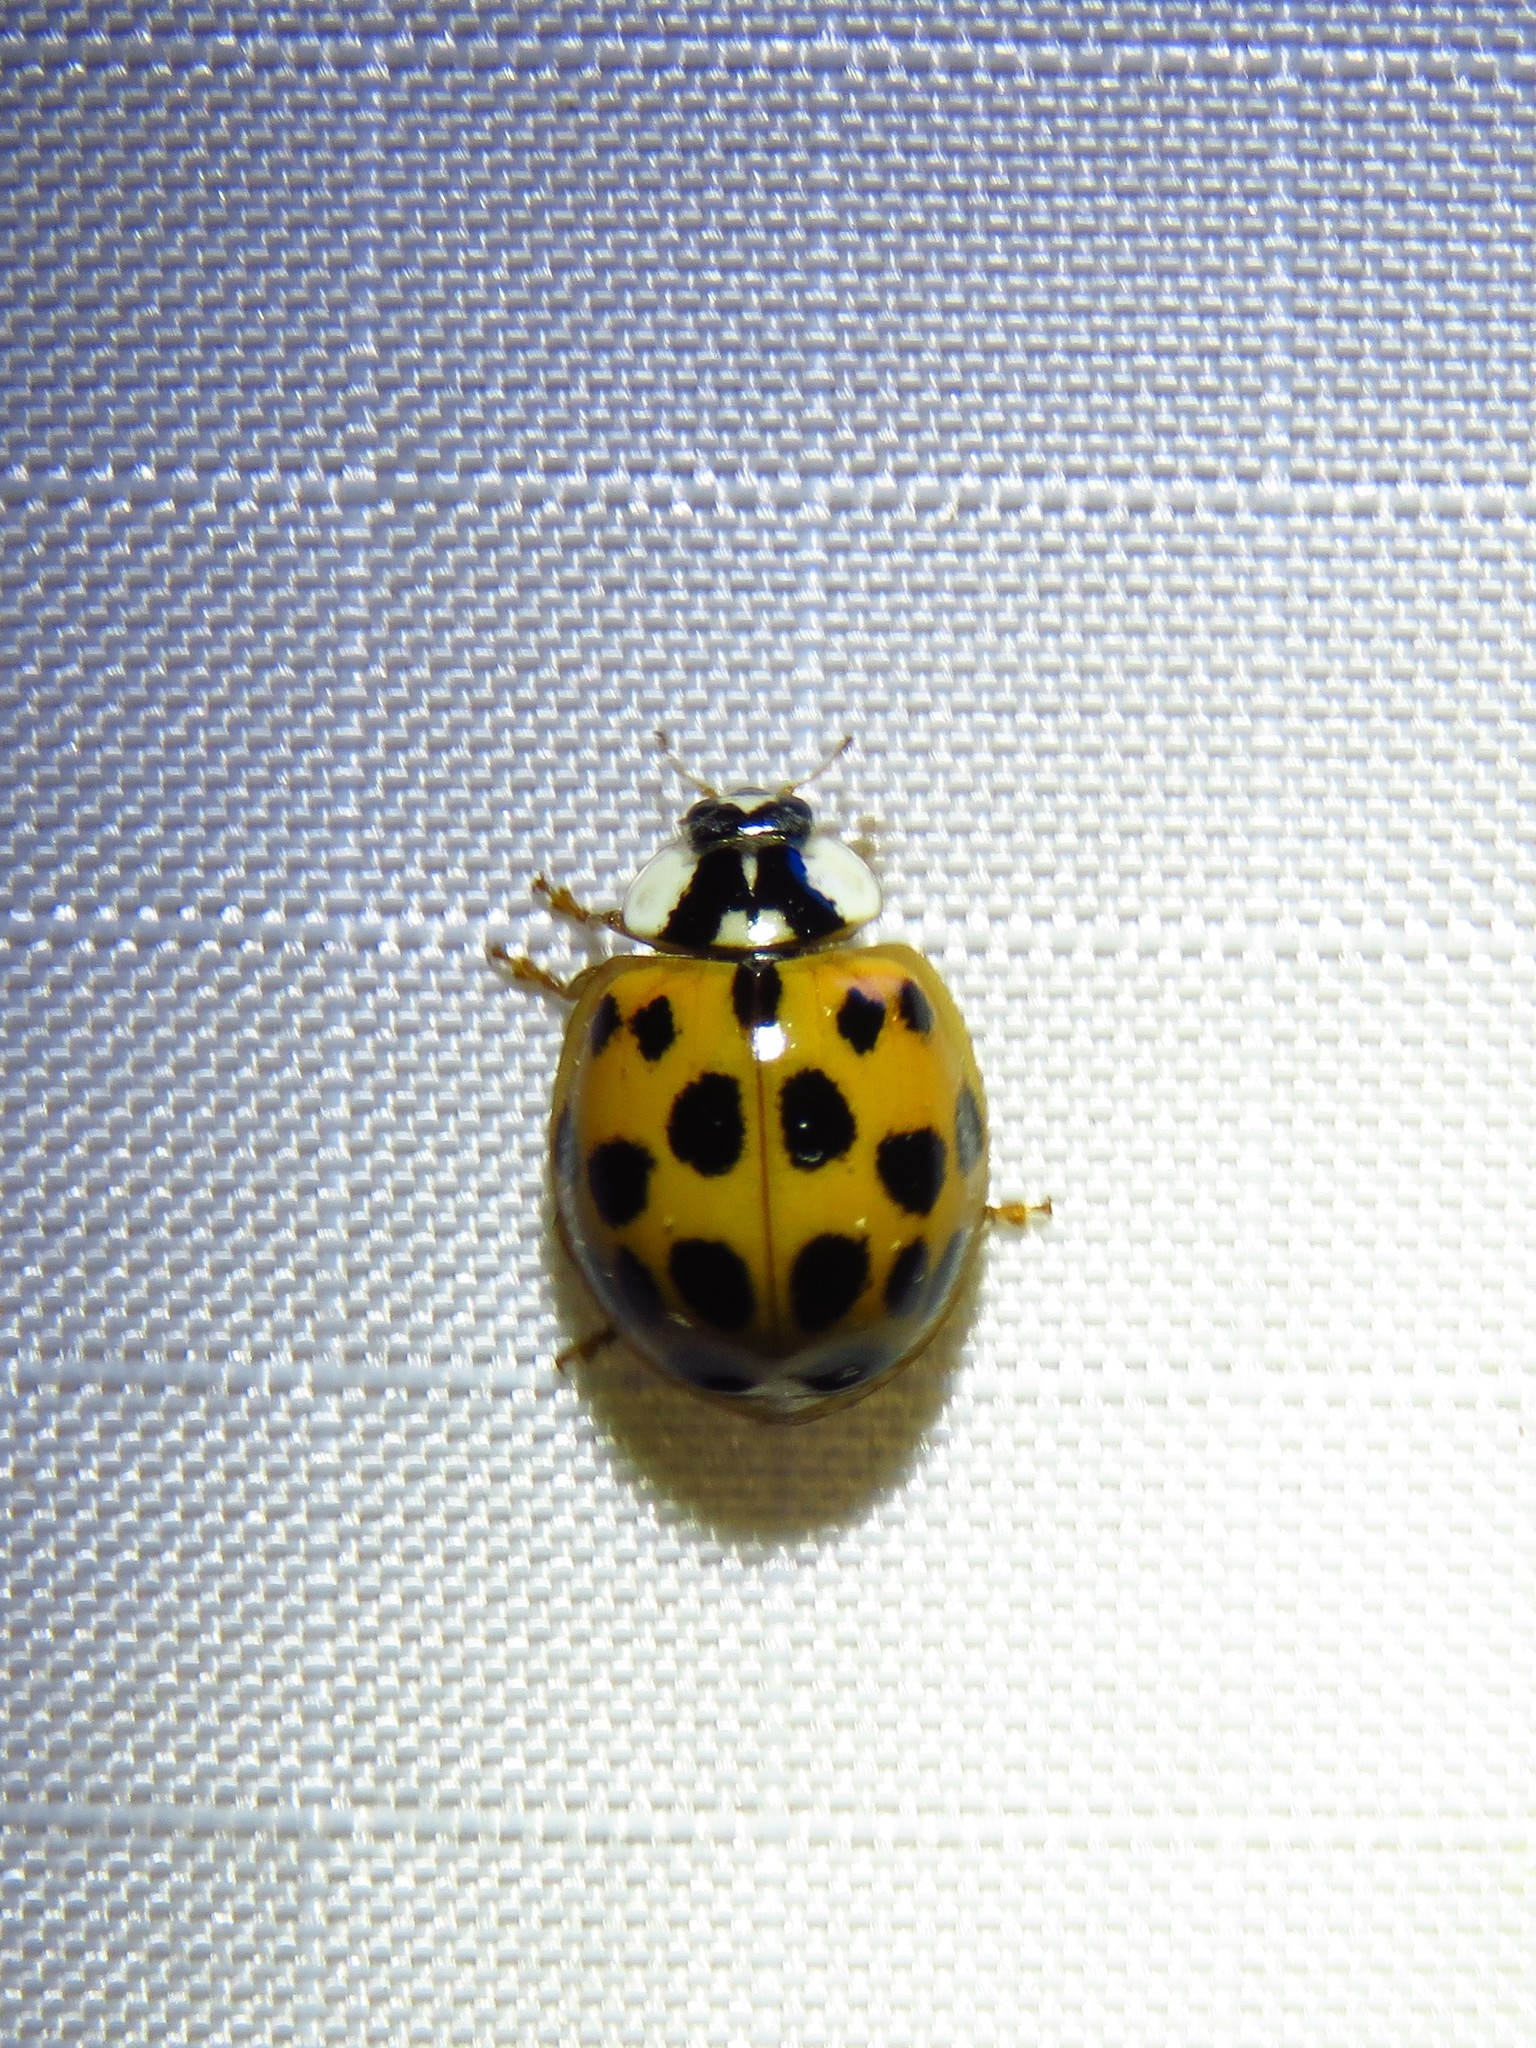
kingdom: Animalia
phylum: Arthropoda
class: Insecta
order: Coleoptera
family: Coccinellidae
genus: Harmonia
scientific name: Harmonia axyridis
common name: Harlequin ladybird
